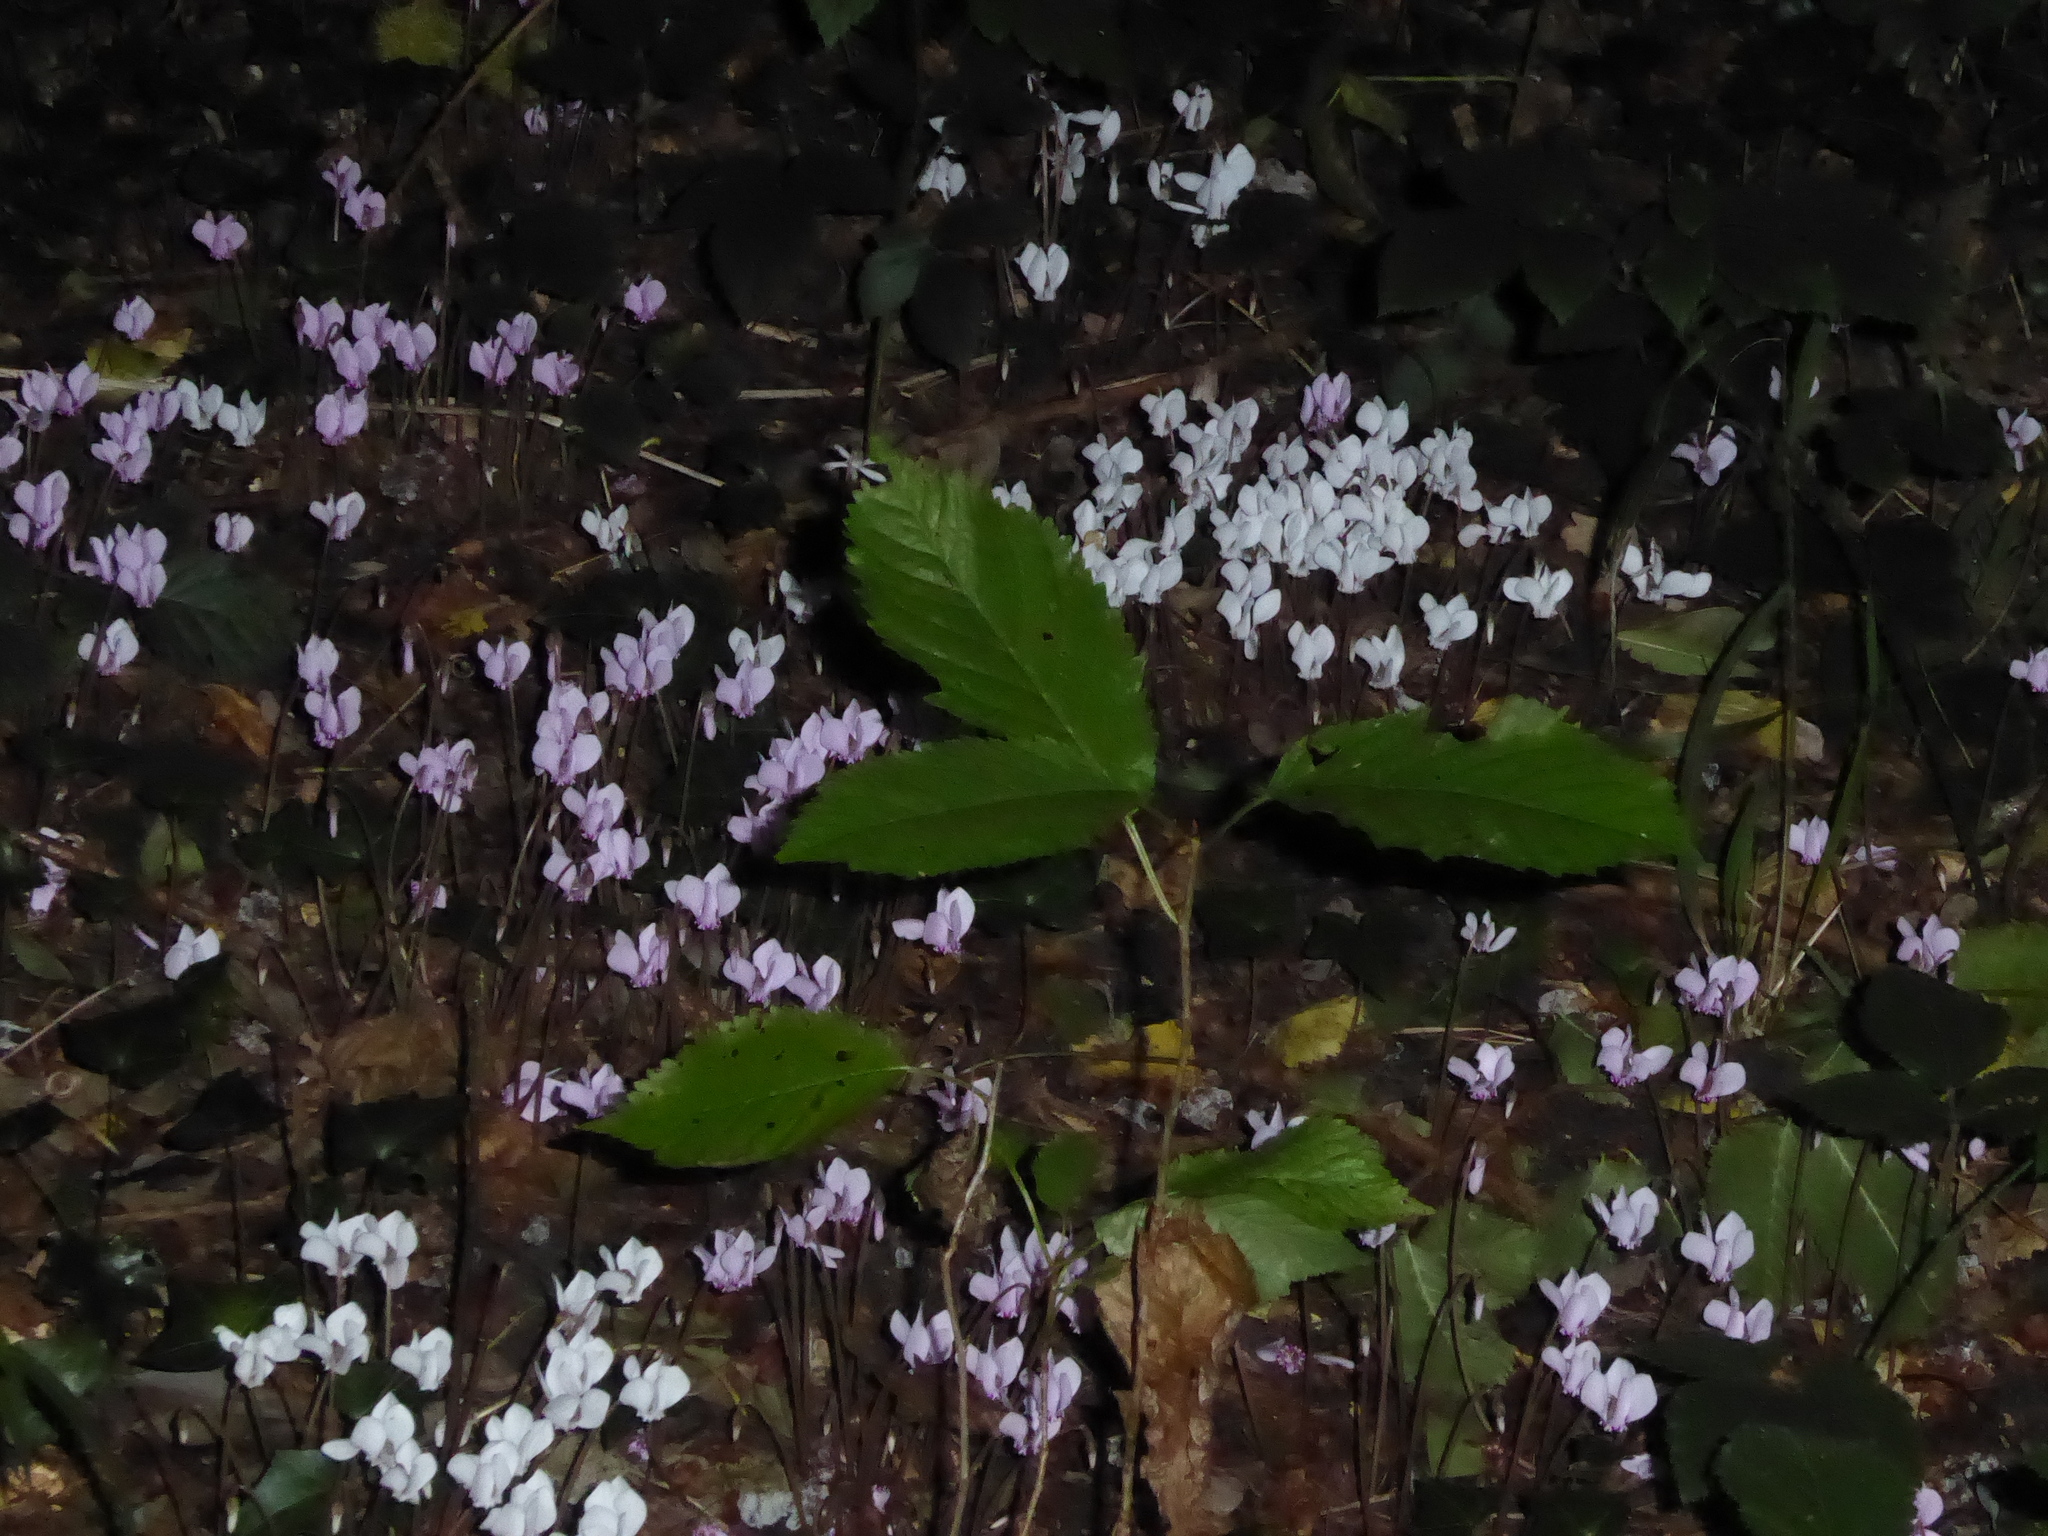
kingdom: Plantae
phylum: Tracheophyta
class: Magnoliopsida
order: Ericales
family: Primulaceae
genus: Cyclamen
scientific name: Cyclamen hederifolium
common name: Sowbread
